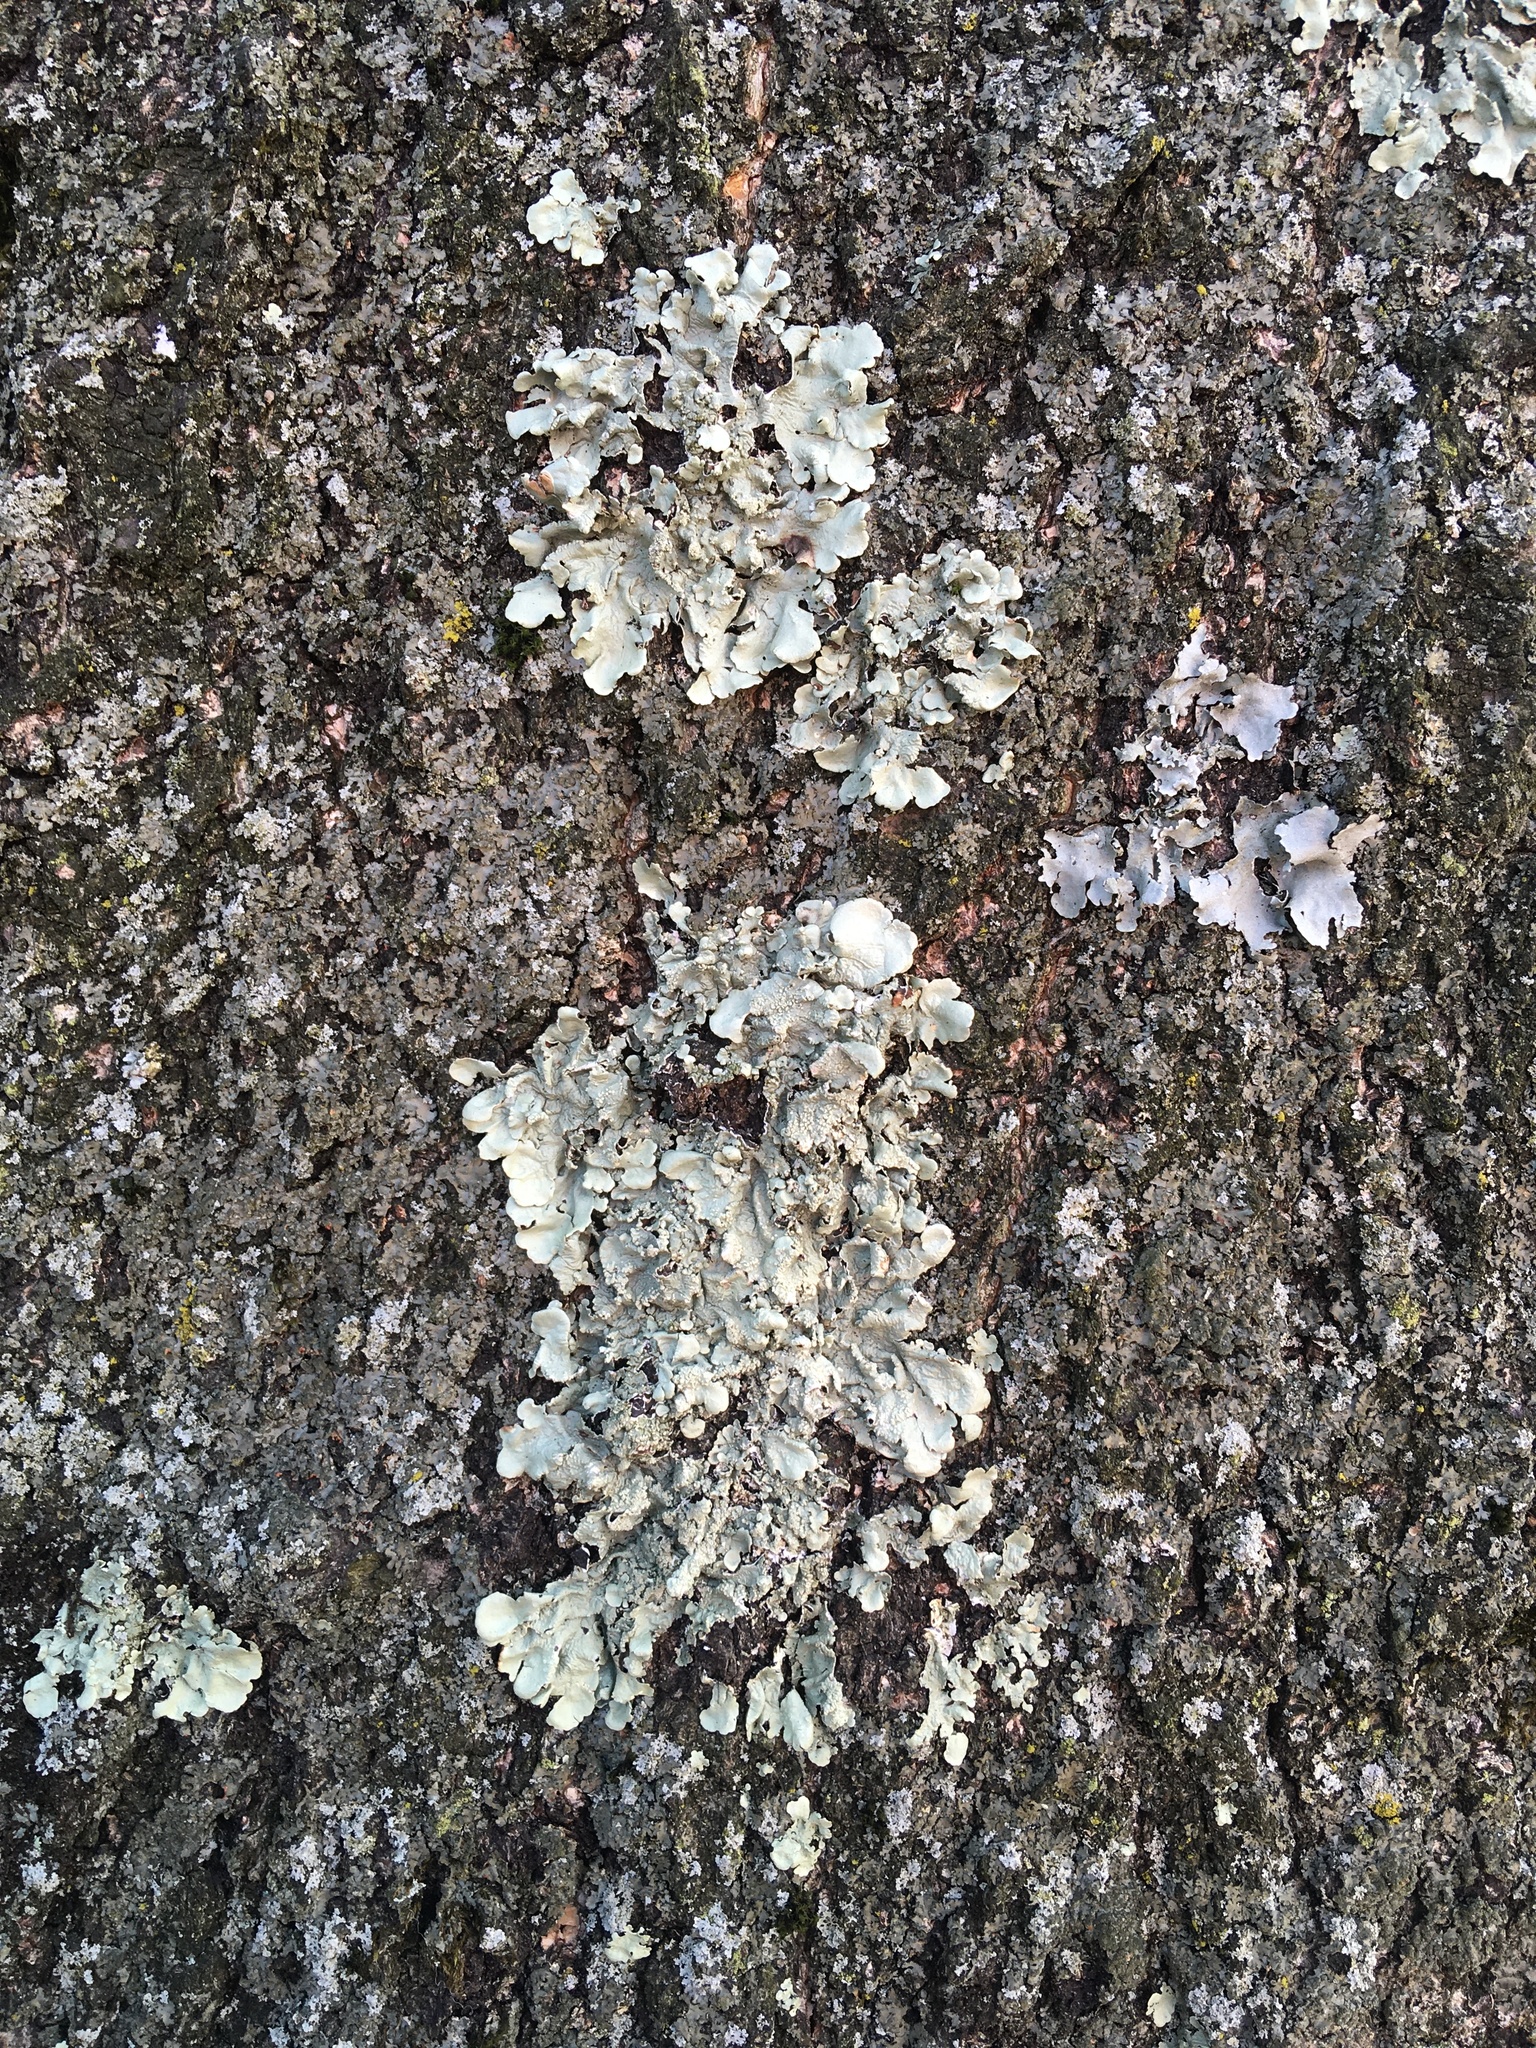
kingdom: Fungi
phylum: Ascomycota
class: Lecanoromycetes
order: Lecanorales
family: Parmeliaceae
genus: Flavoparmelia
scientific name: Flavoparmelia caperata
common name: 40-mile per hour lichen
